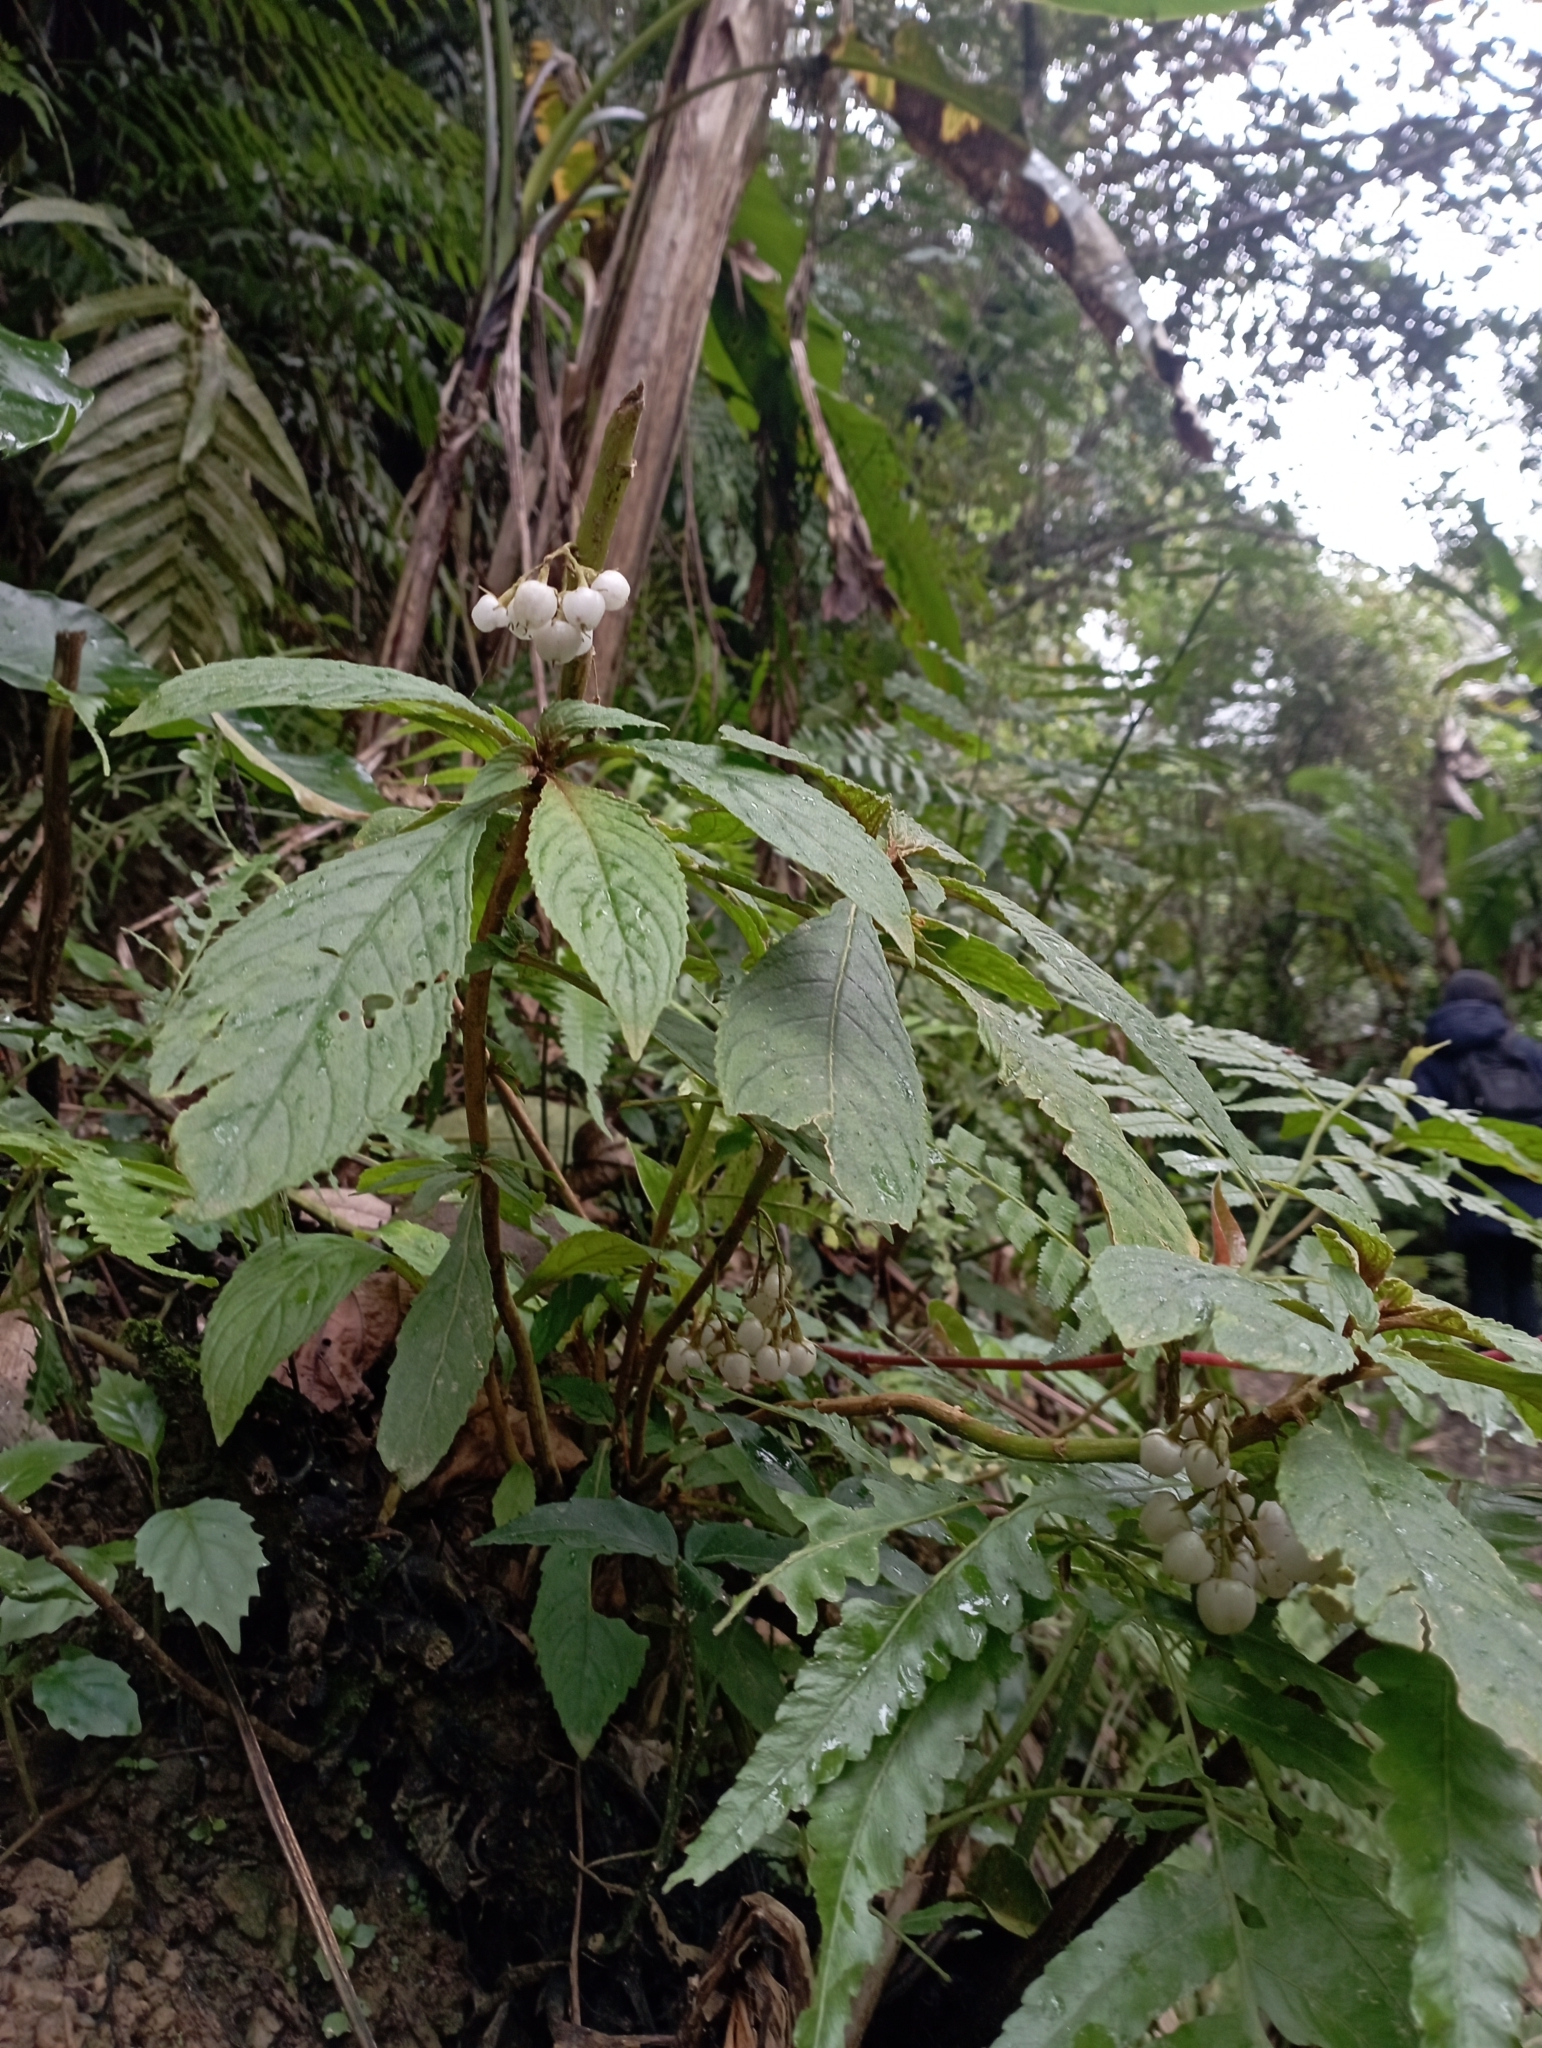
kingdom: Plantae
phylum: Tracheophyta
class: Magnoliopsida
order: Lamiales
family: Gesneriaceae
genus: Rhynchotechum
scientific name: Rhynchotechum discolor
